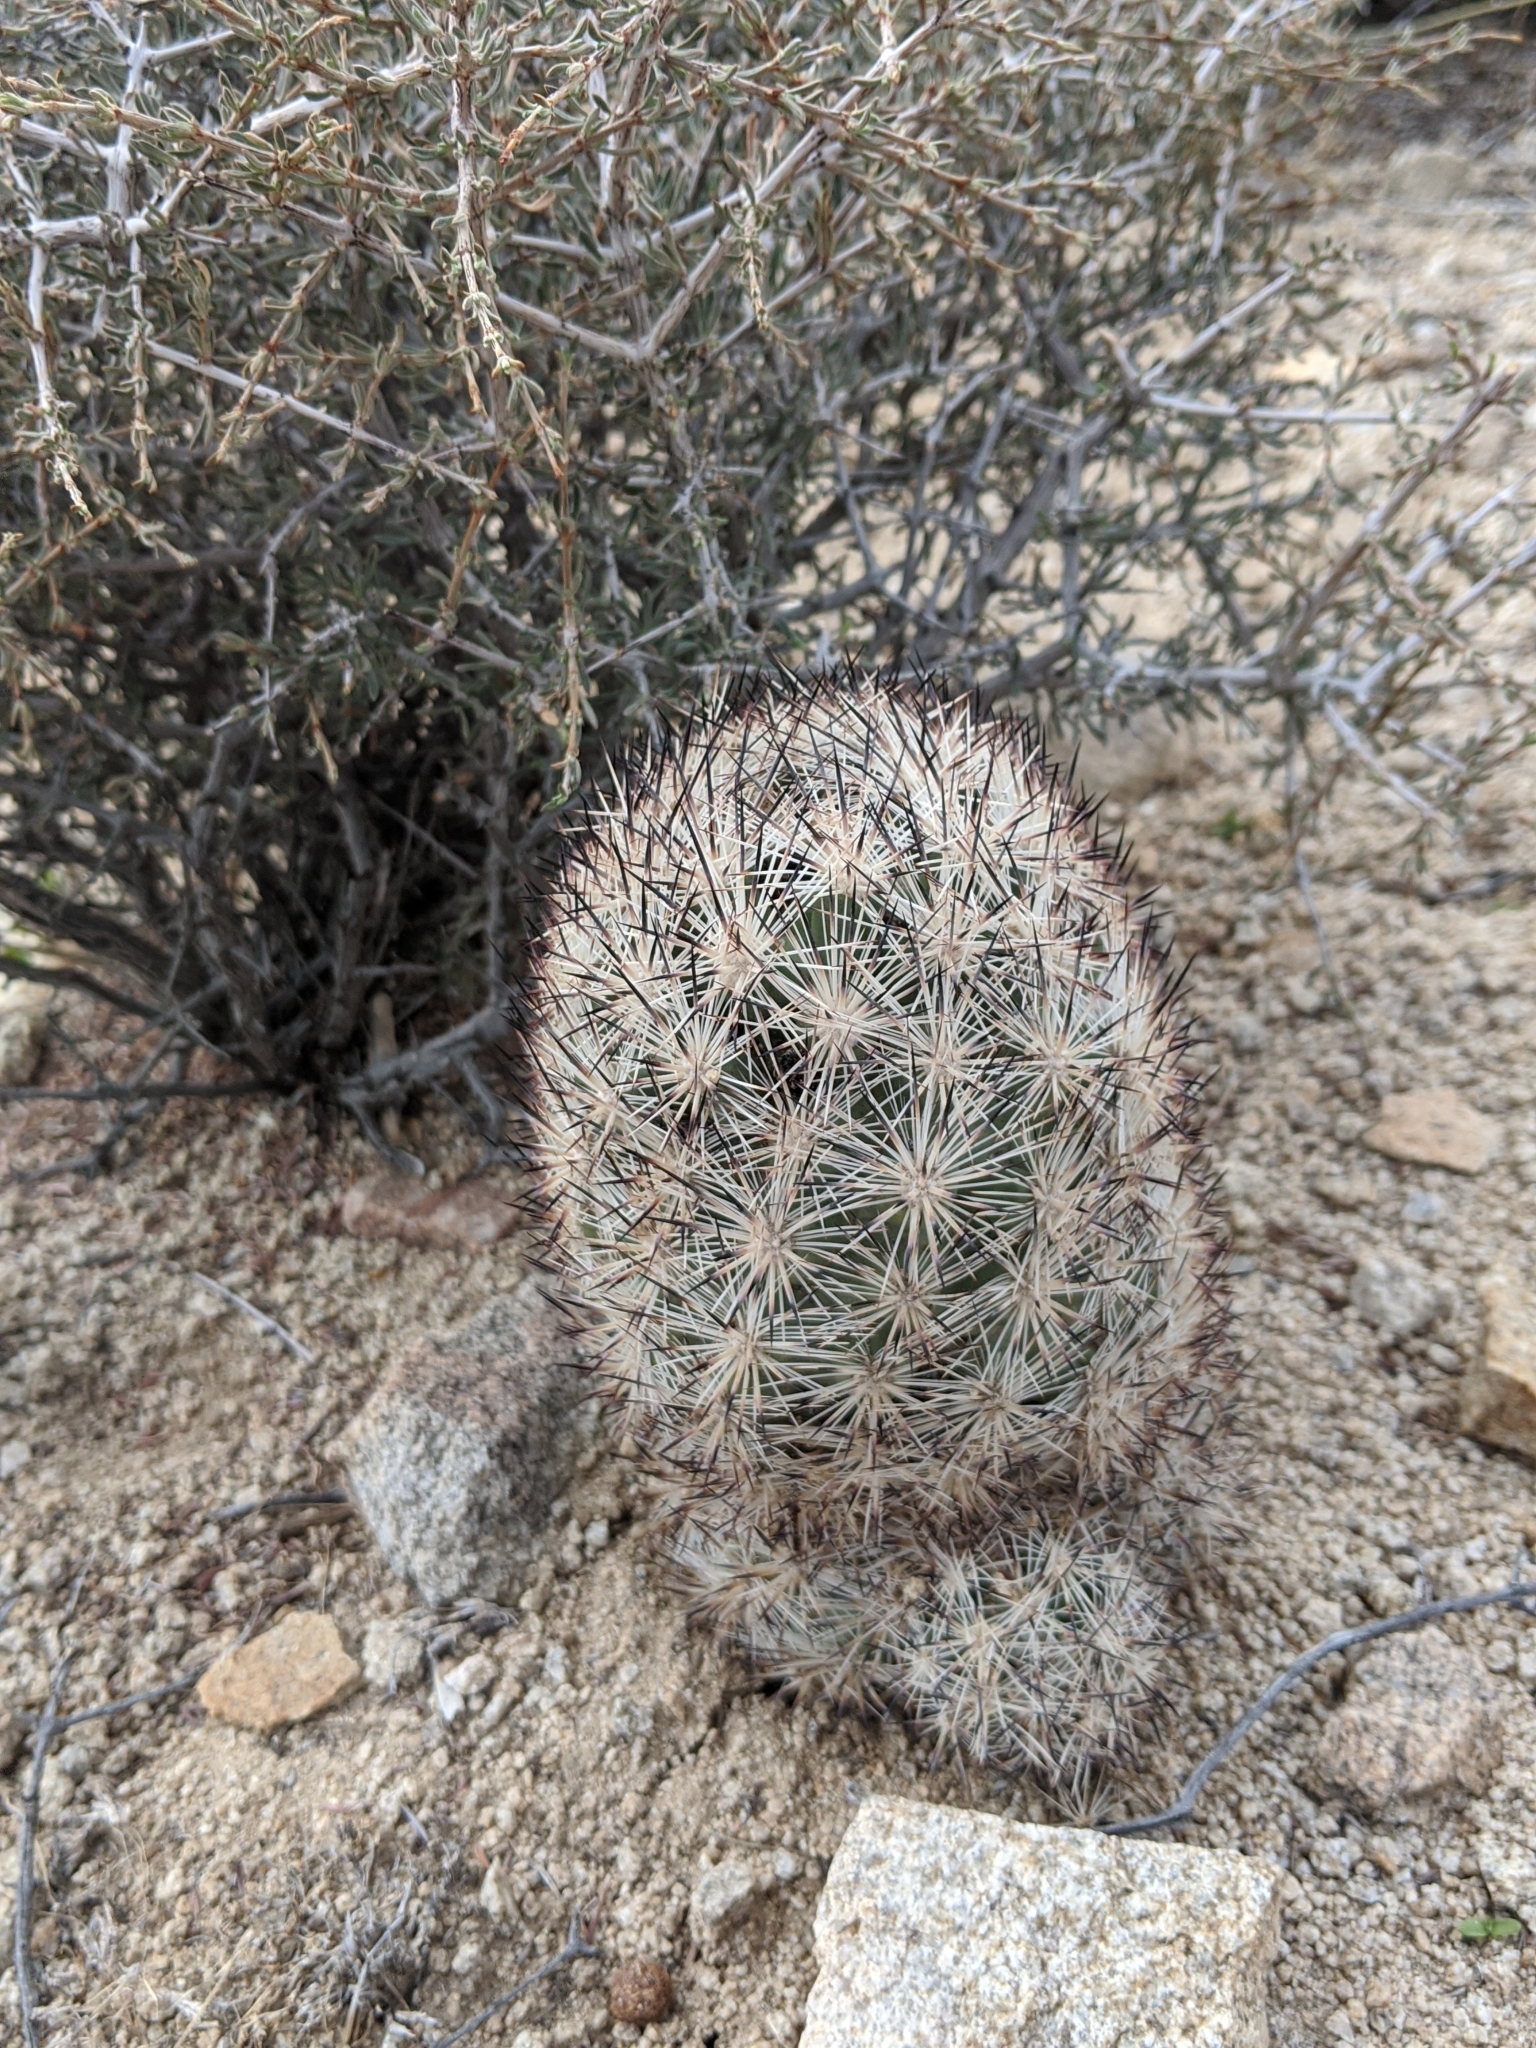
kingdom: Plantae
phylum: Tracheophyta
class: Magnoliopsida
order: Caryophyllales
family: Cactaceae
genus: Pelecyphora
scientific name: Pelecyphora alversonii
